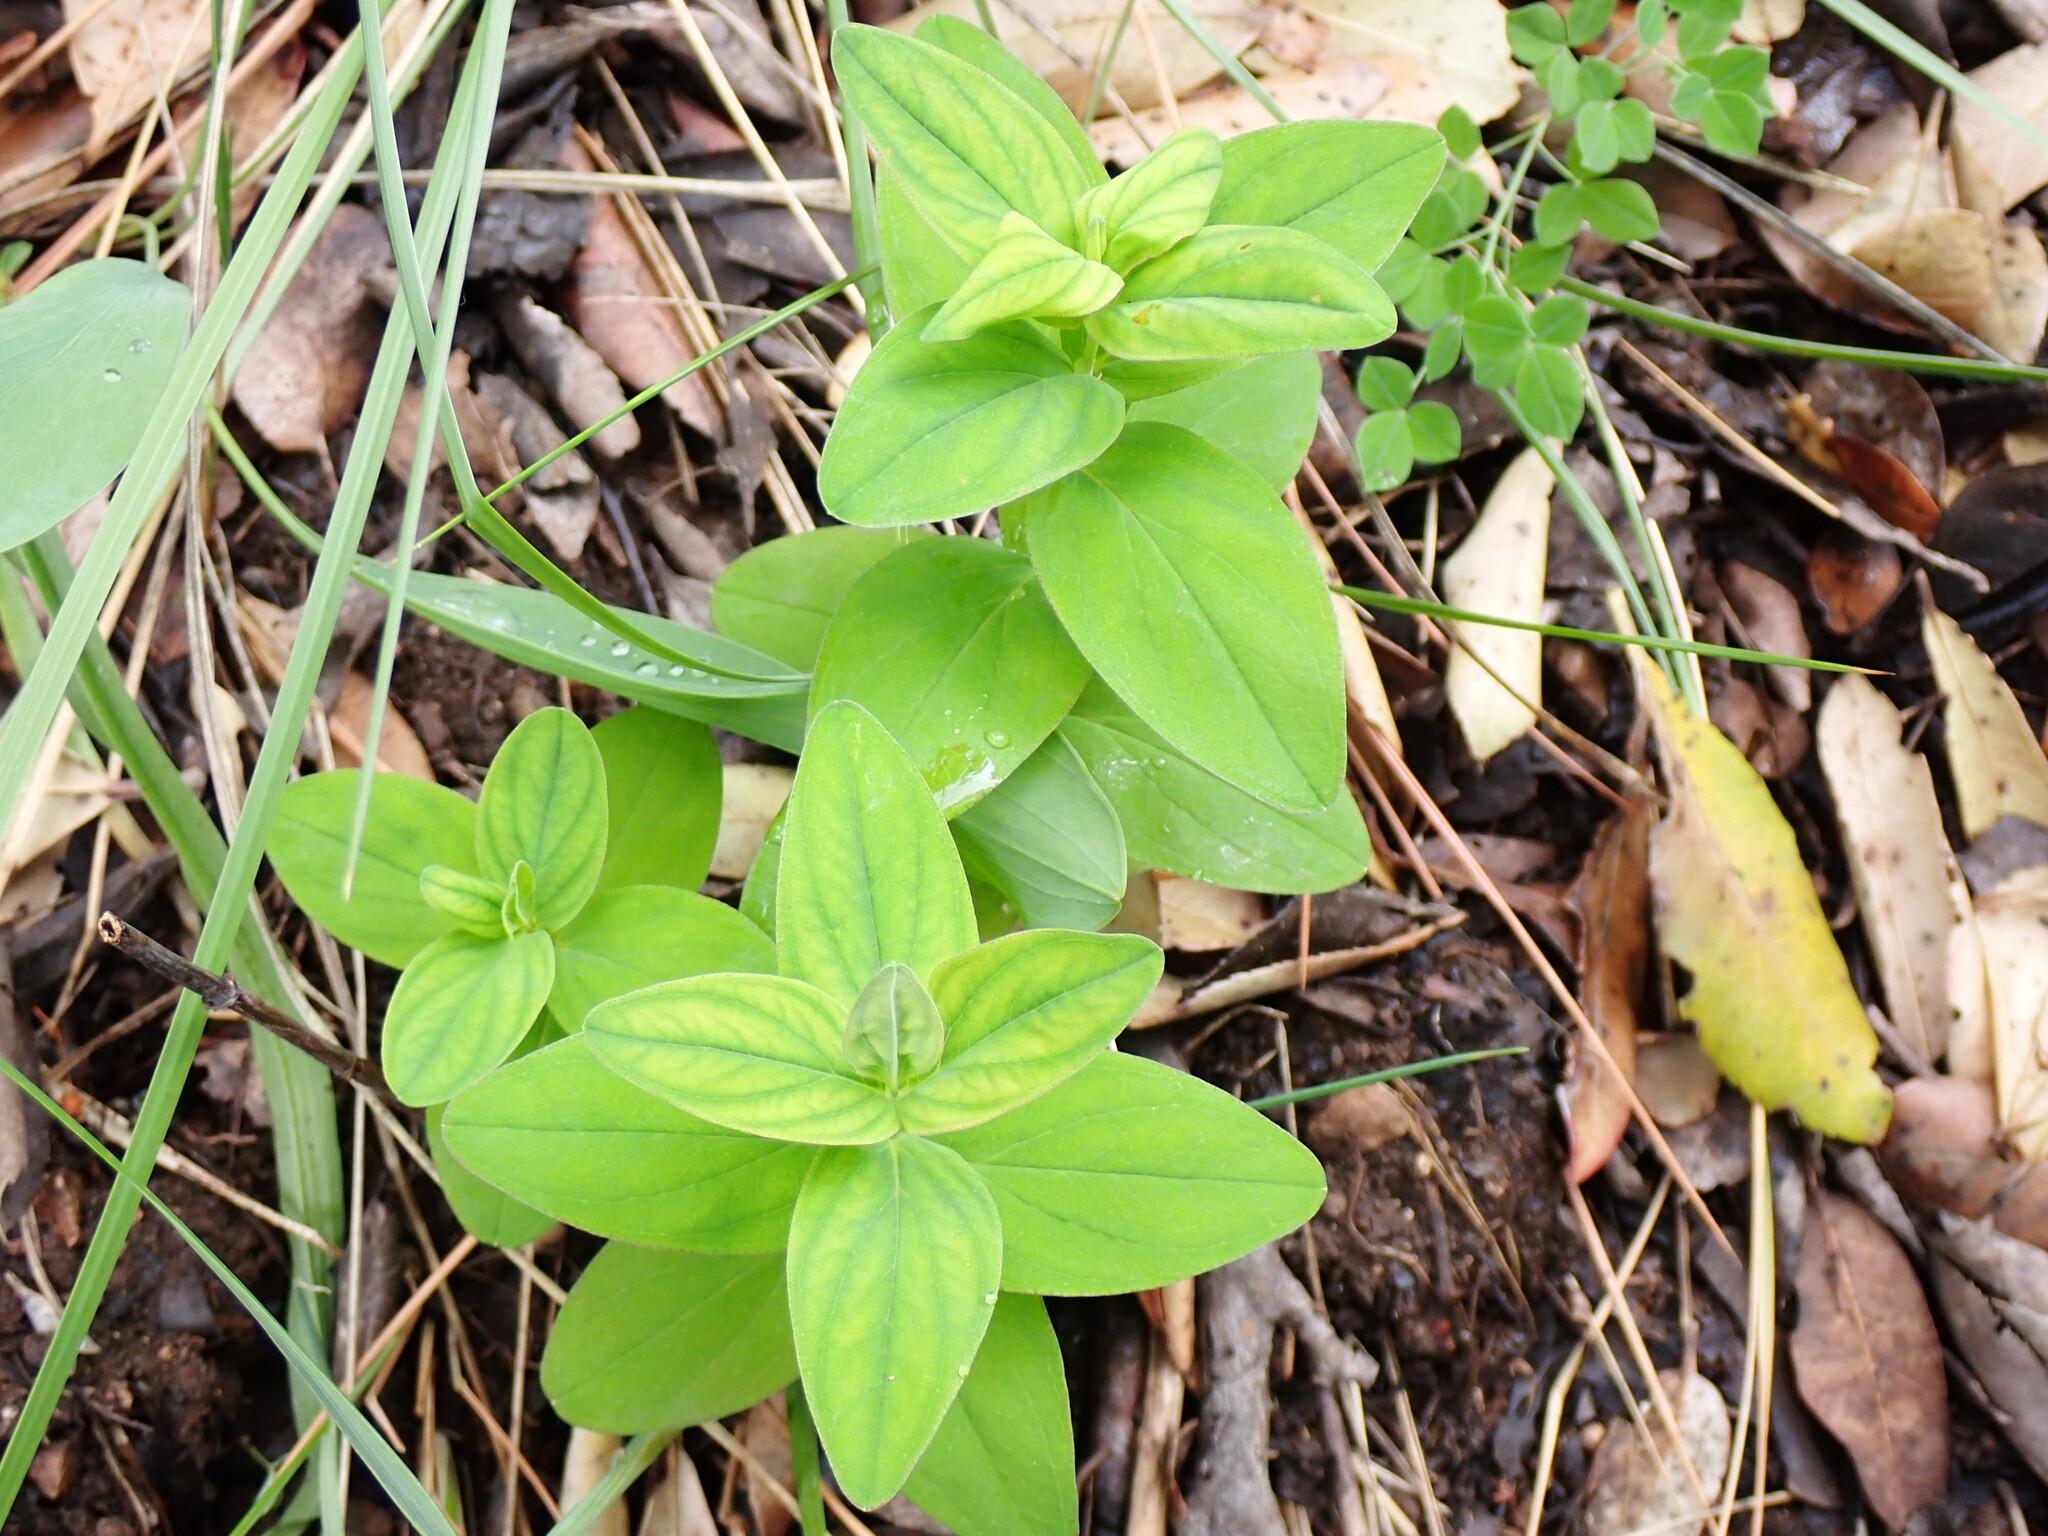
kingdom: Plantae
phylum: Tracheophyta
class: Magnoliopsida
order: Malpighiales
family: Hypericaceae
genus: Hypericum
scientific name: Hypericum montanum
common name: Pale st. john's-wort
